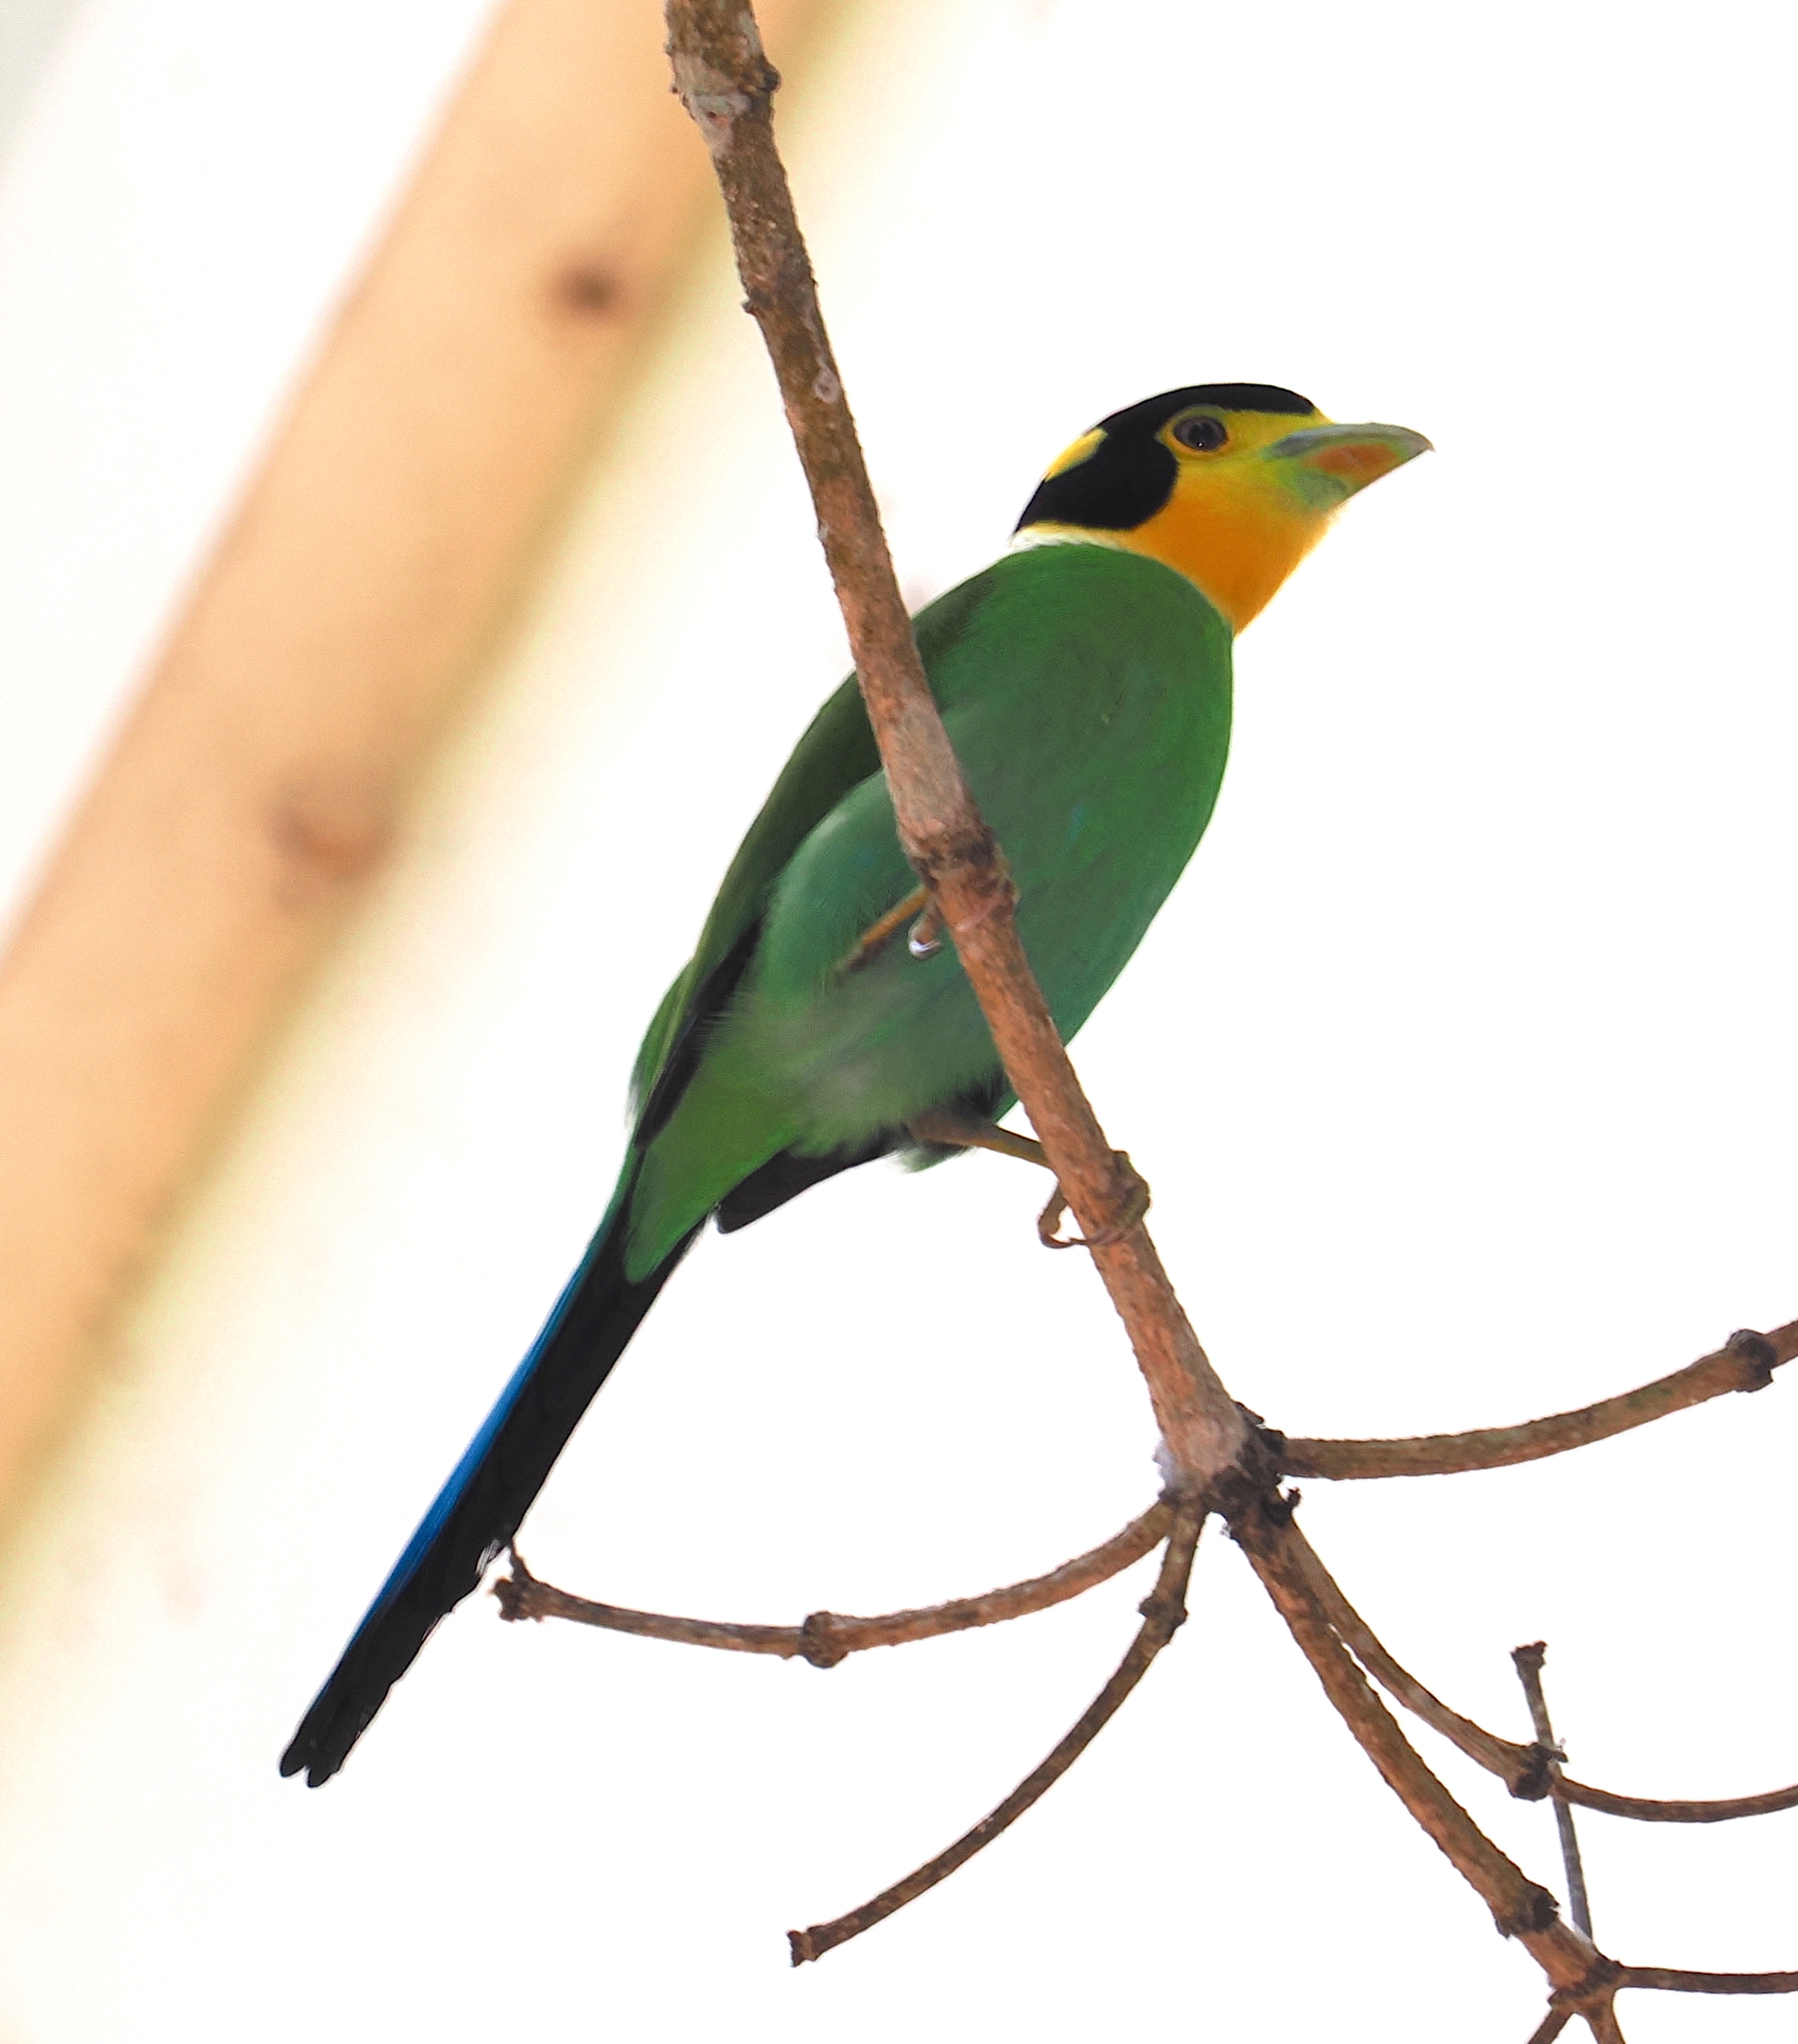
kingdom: Animalia
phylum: Chordata
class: Aves
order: Passeriformes
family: Eurylaimidae
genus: Psarisomus
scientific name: Psarisomus dalhousiae
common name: Long-tailed broadbill
